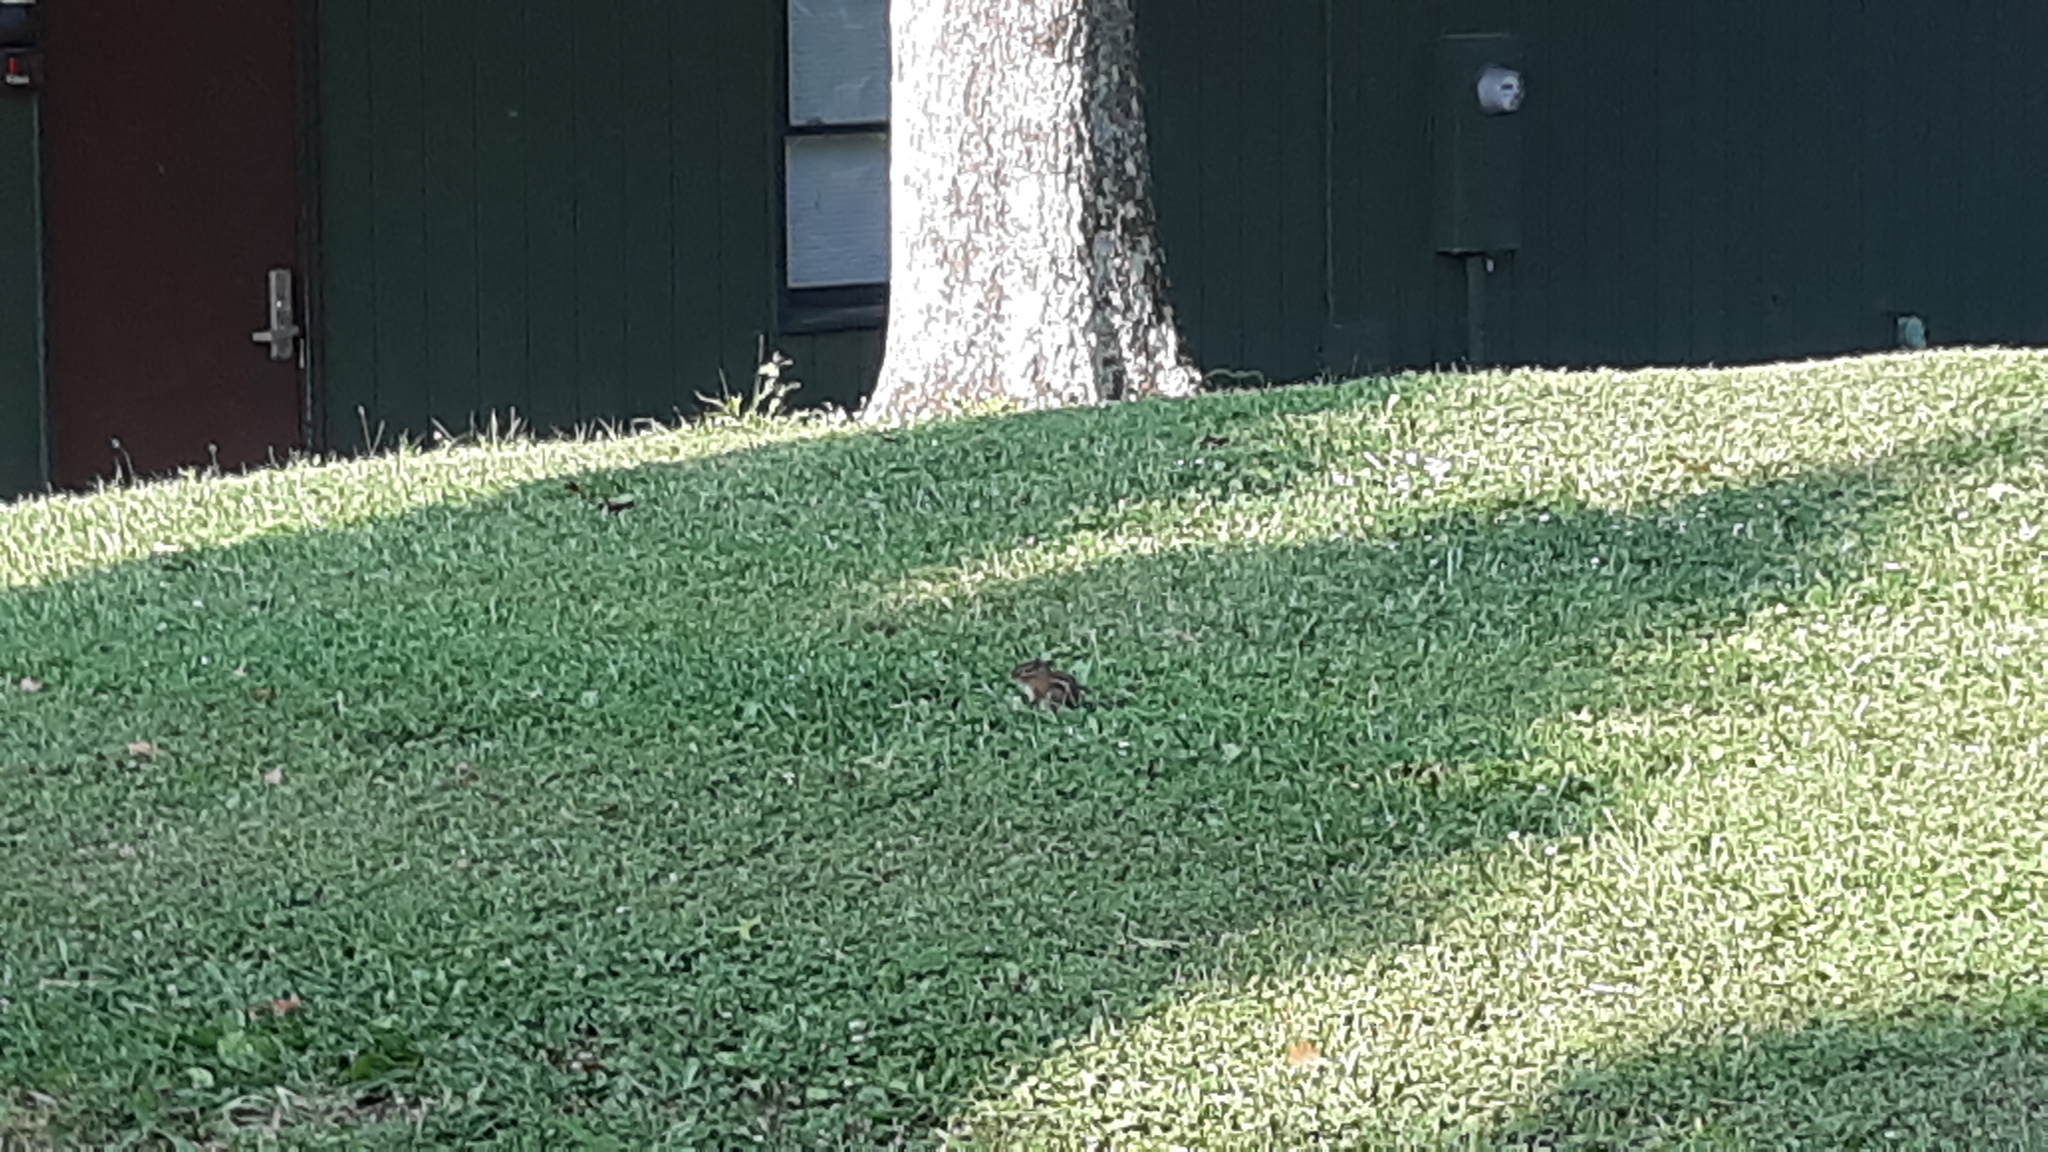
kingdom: Animalia
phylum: Chordata
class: Mammalia
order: Rodentia
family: Sciuridae
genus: Tamias
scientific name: Tamias striatus
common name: Eastern chipmunk
